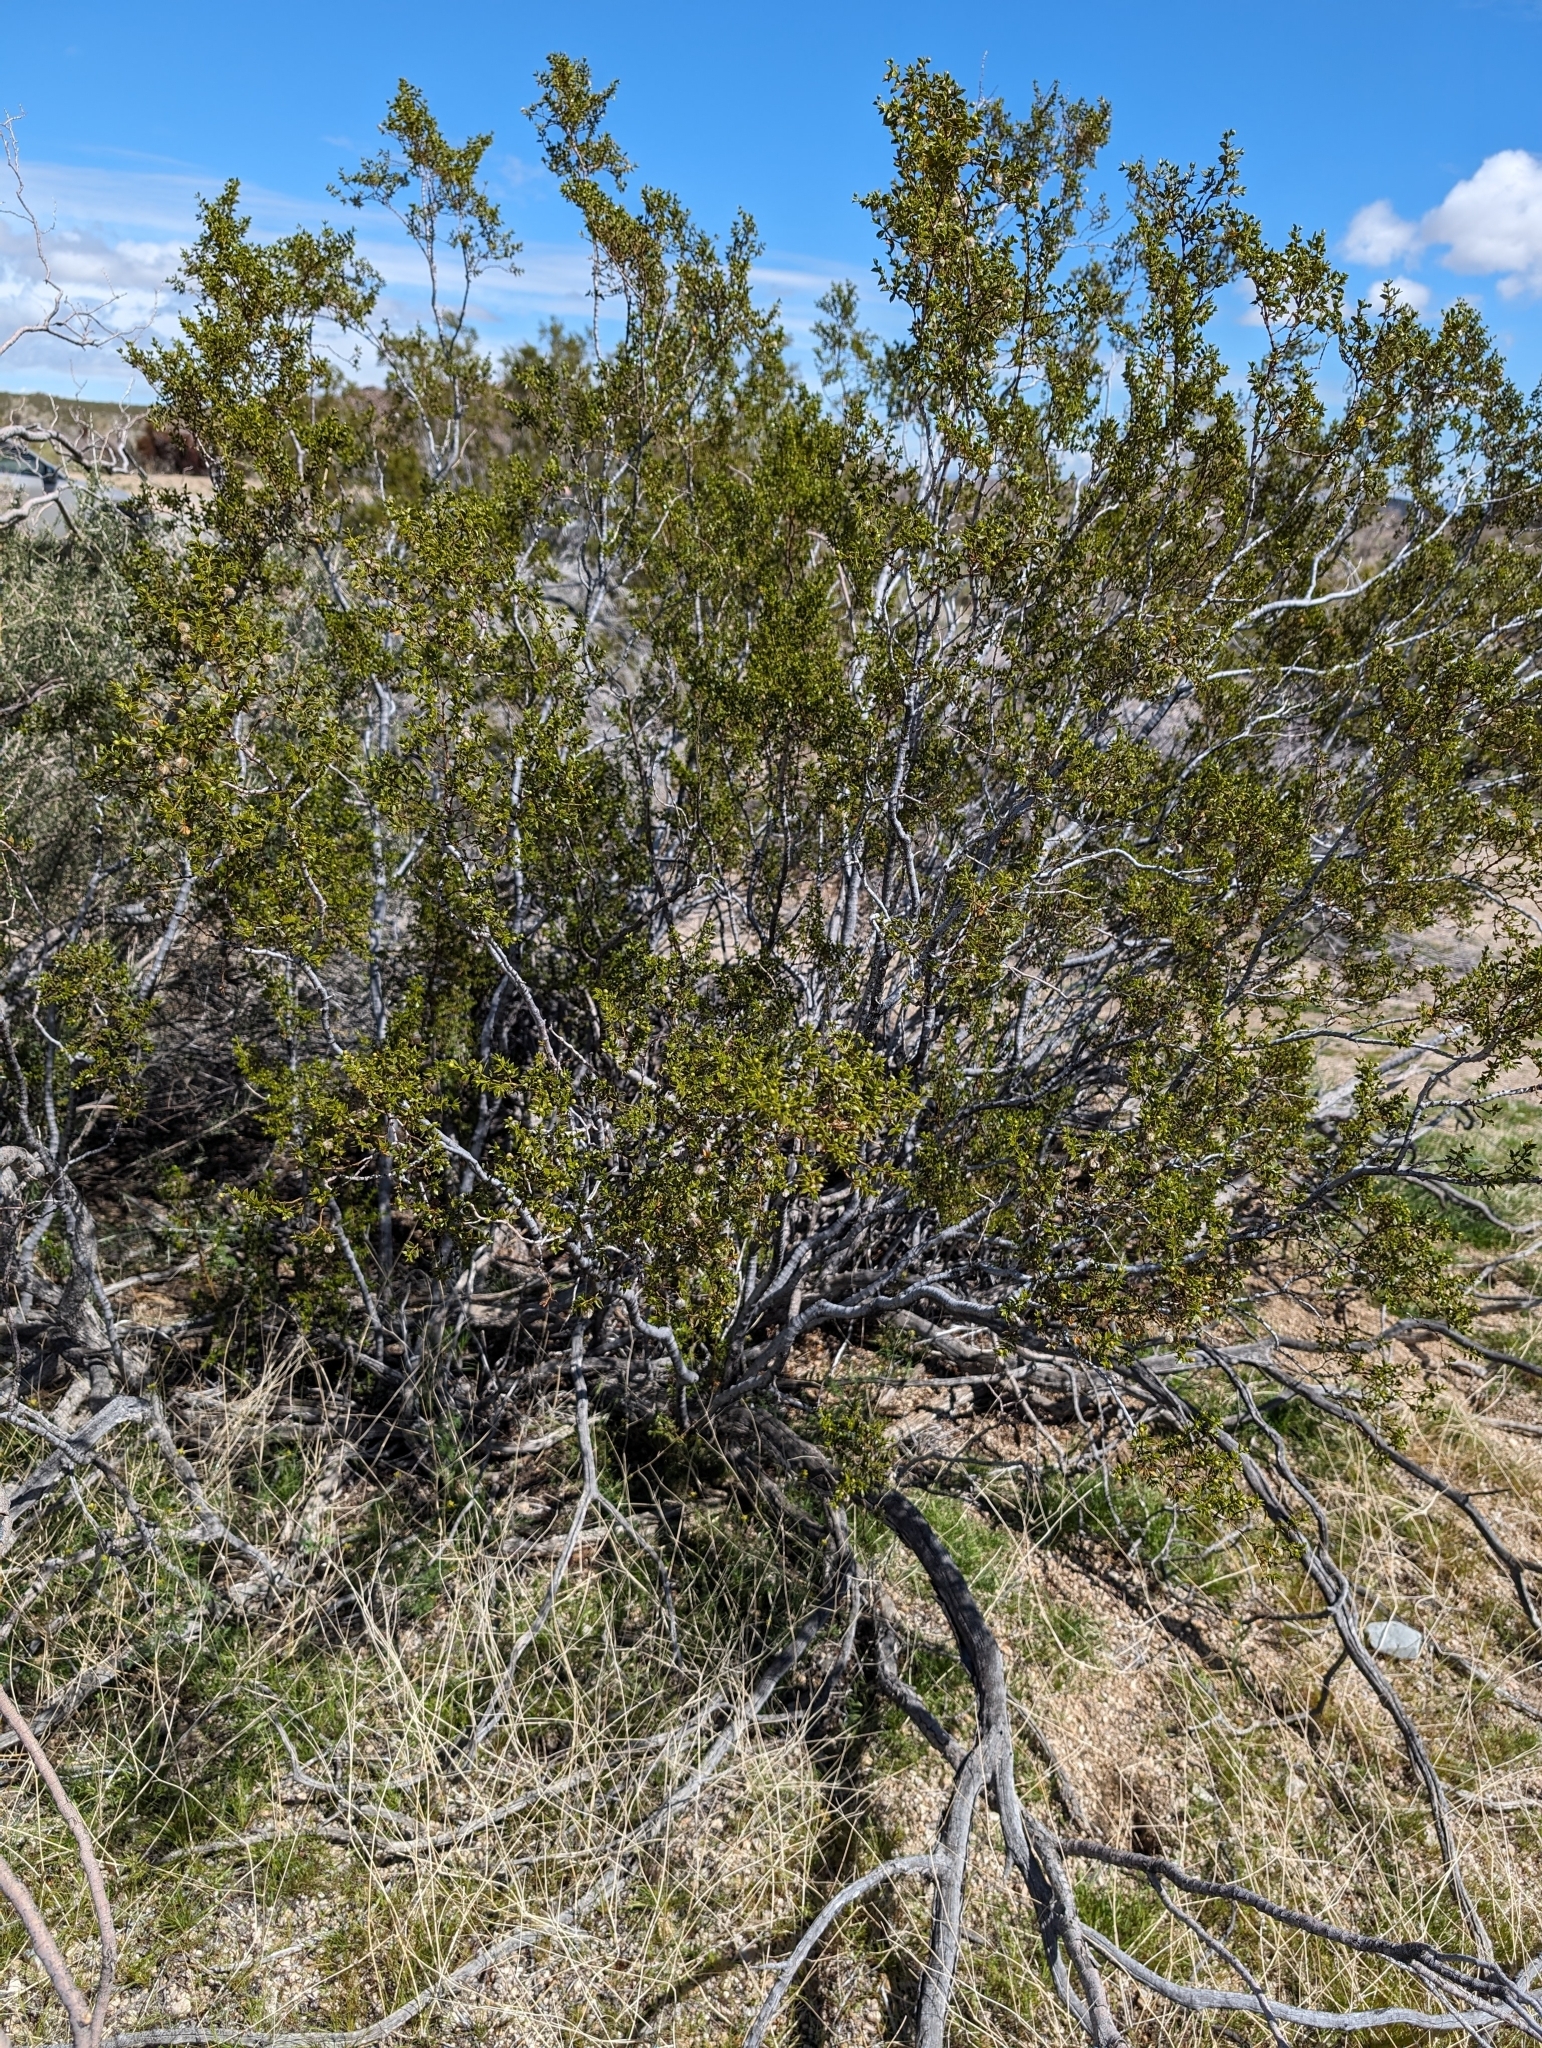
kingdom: Plantae
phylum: Tracheophyta
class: Magnoliopsida
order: Zygophyllales
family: Zygophyllaceae
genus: Larrea
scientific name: Larrea tridentata
